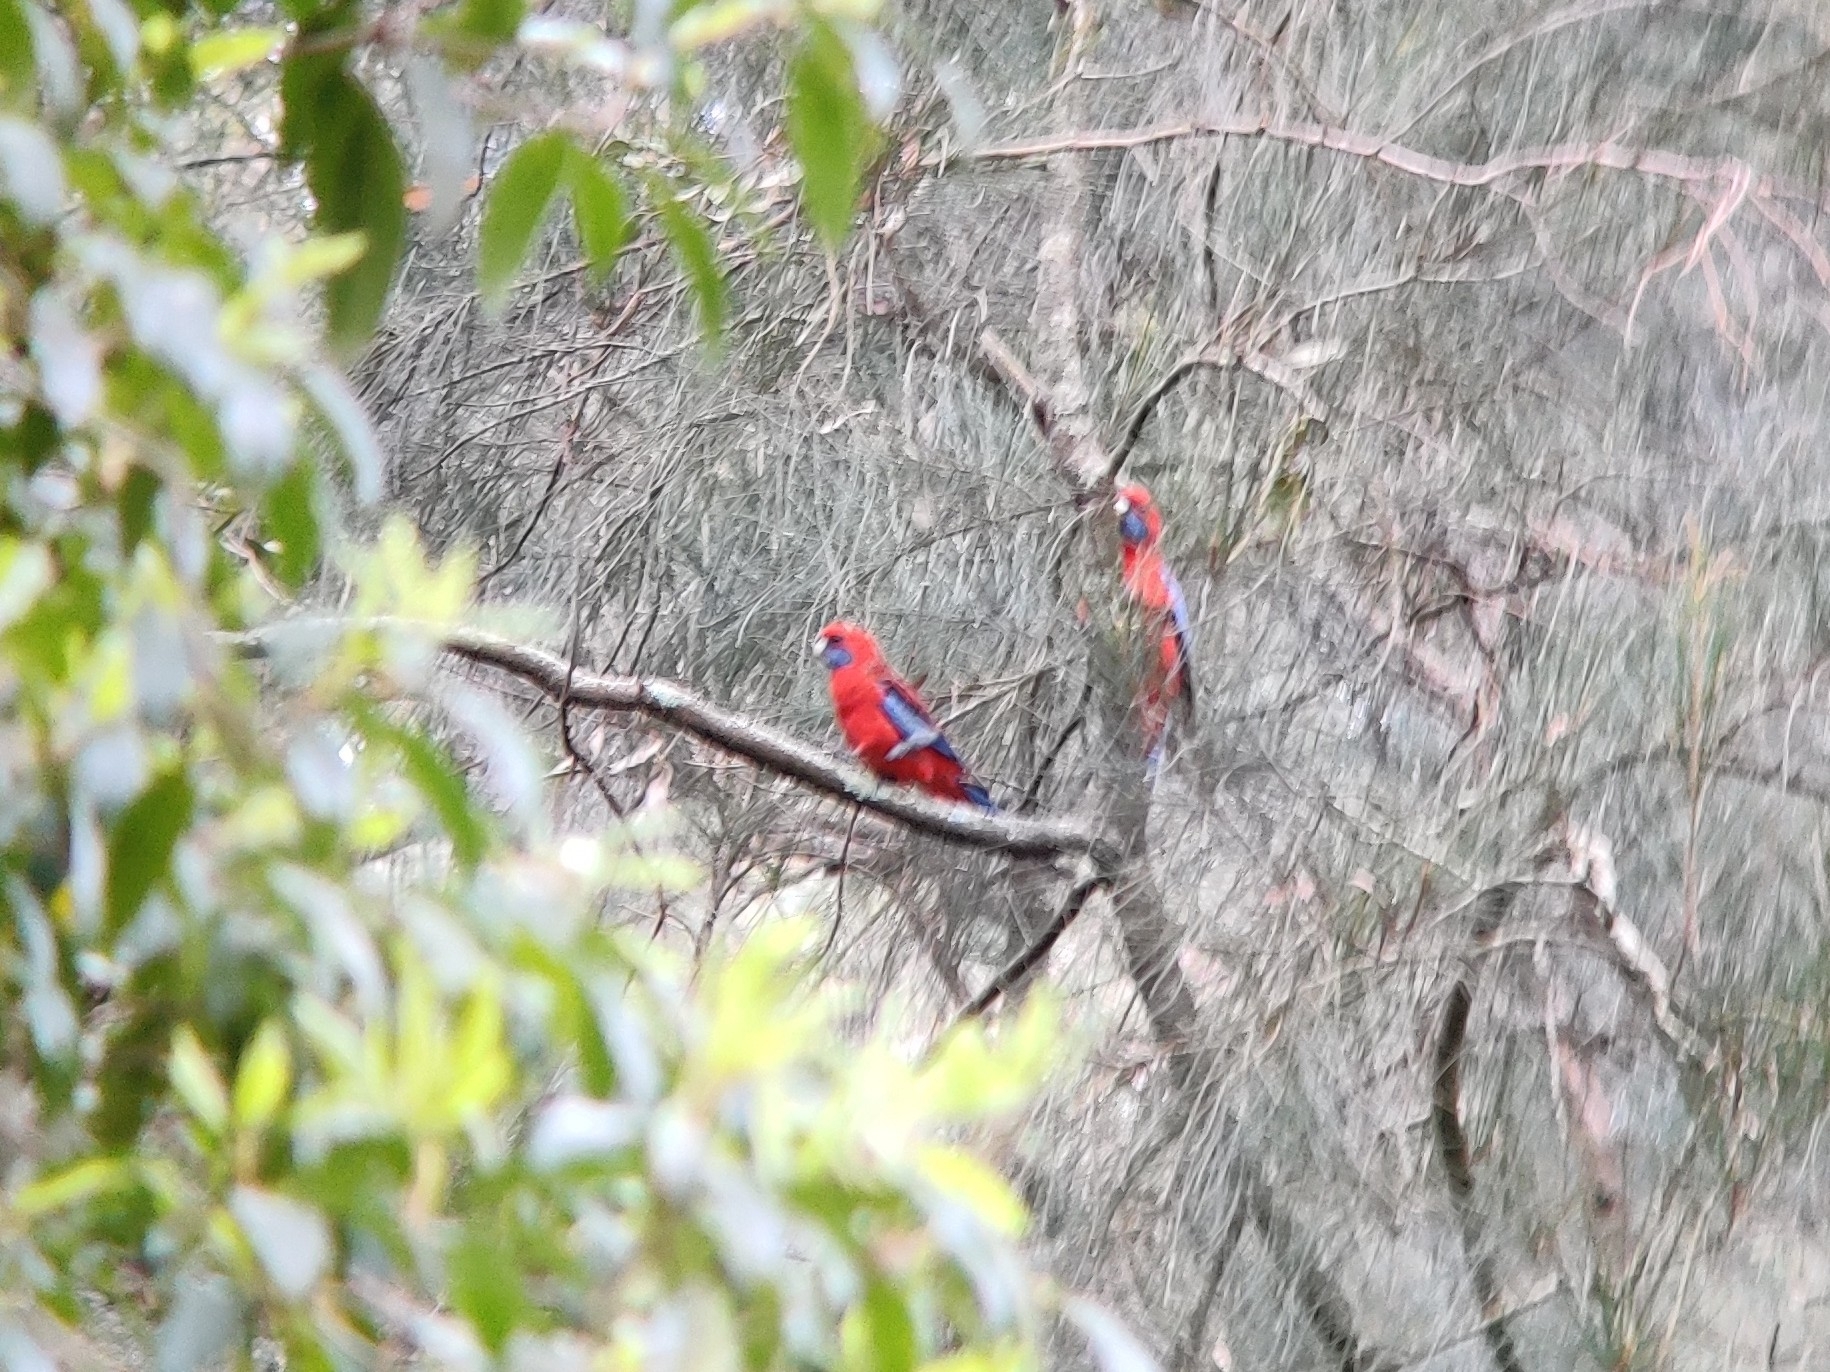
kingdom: Animalia
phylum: Chordata
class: Aves
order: Psittaciformes
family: Psittacidae
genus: Platycercus
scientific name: Platycercus elegans
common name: Crimson rosella
